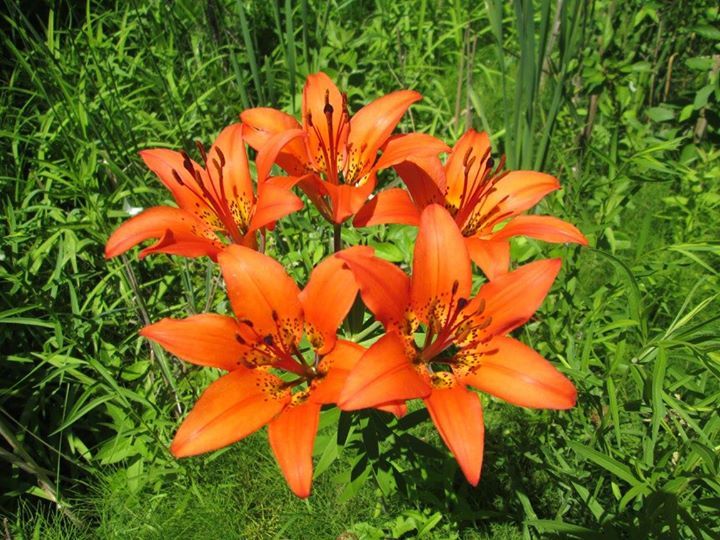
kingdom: Plantae
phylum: Tracheophyta
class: Liliopsida
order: Liliales
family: Liliaceae
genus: Lilium
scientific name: Lilium philadelphicum
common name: Red lily
